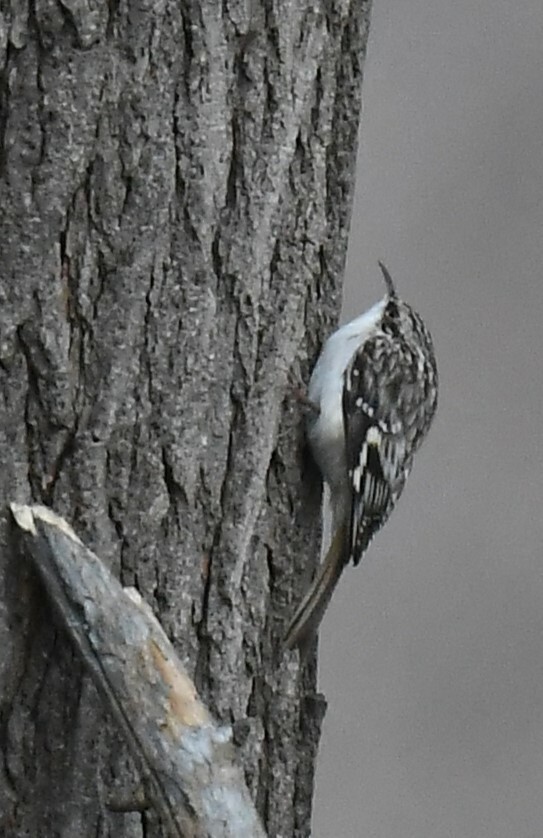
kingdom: Animalia
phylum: Chordata
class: Aves
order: Passeriformes
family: Certhiidae
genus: Certhia
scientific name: Certhia americana
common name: Brown creeper
